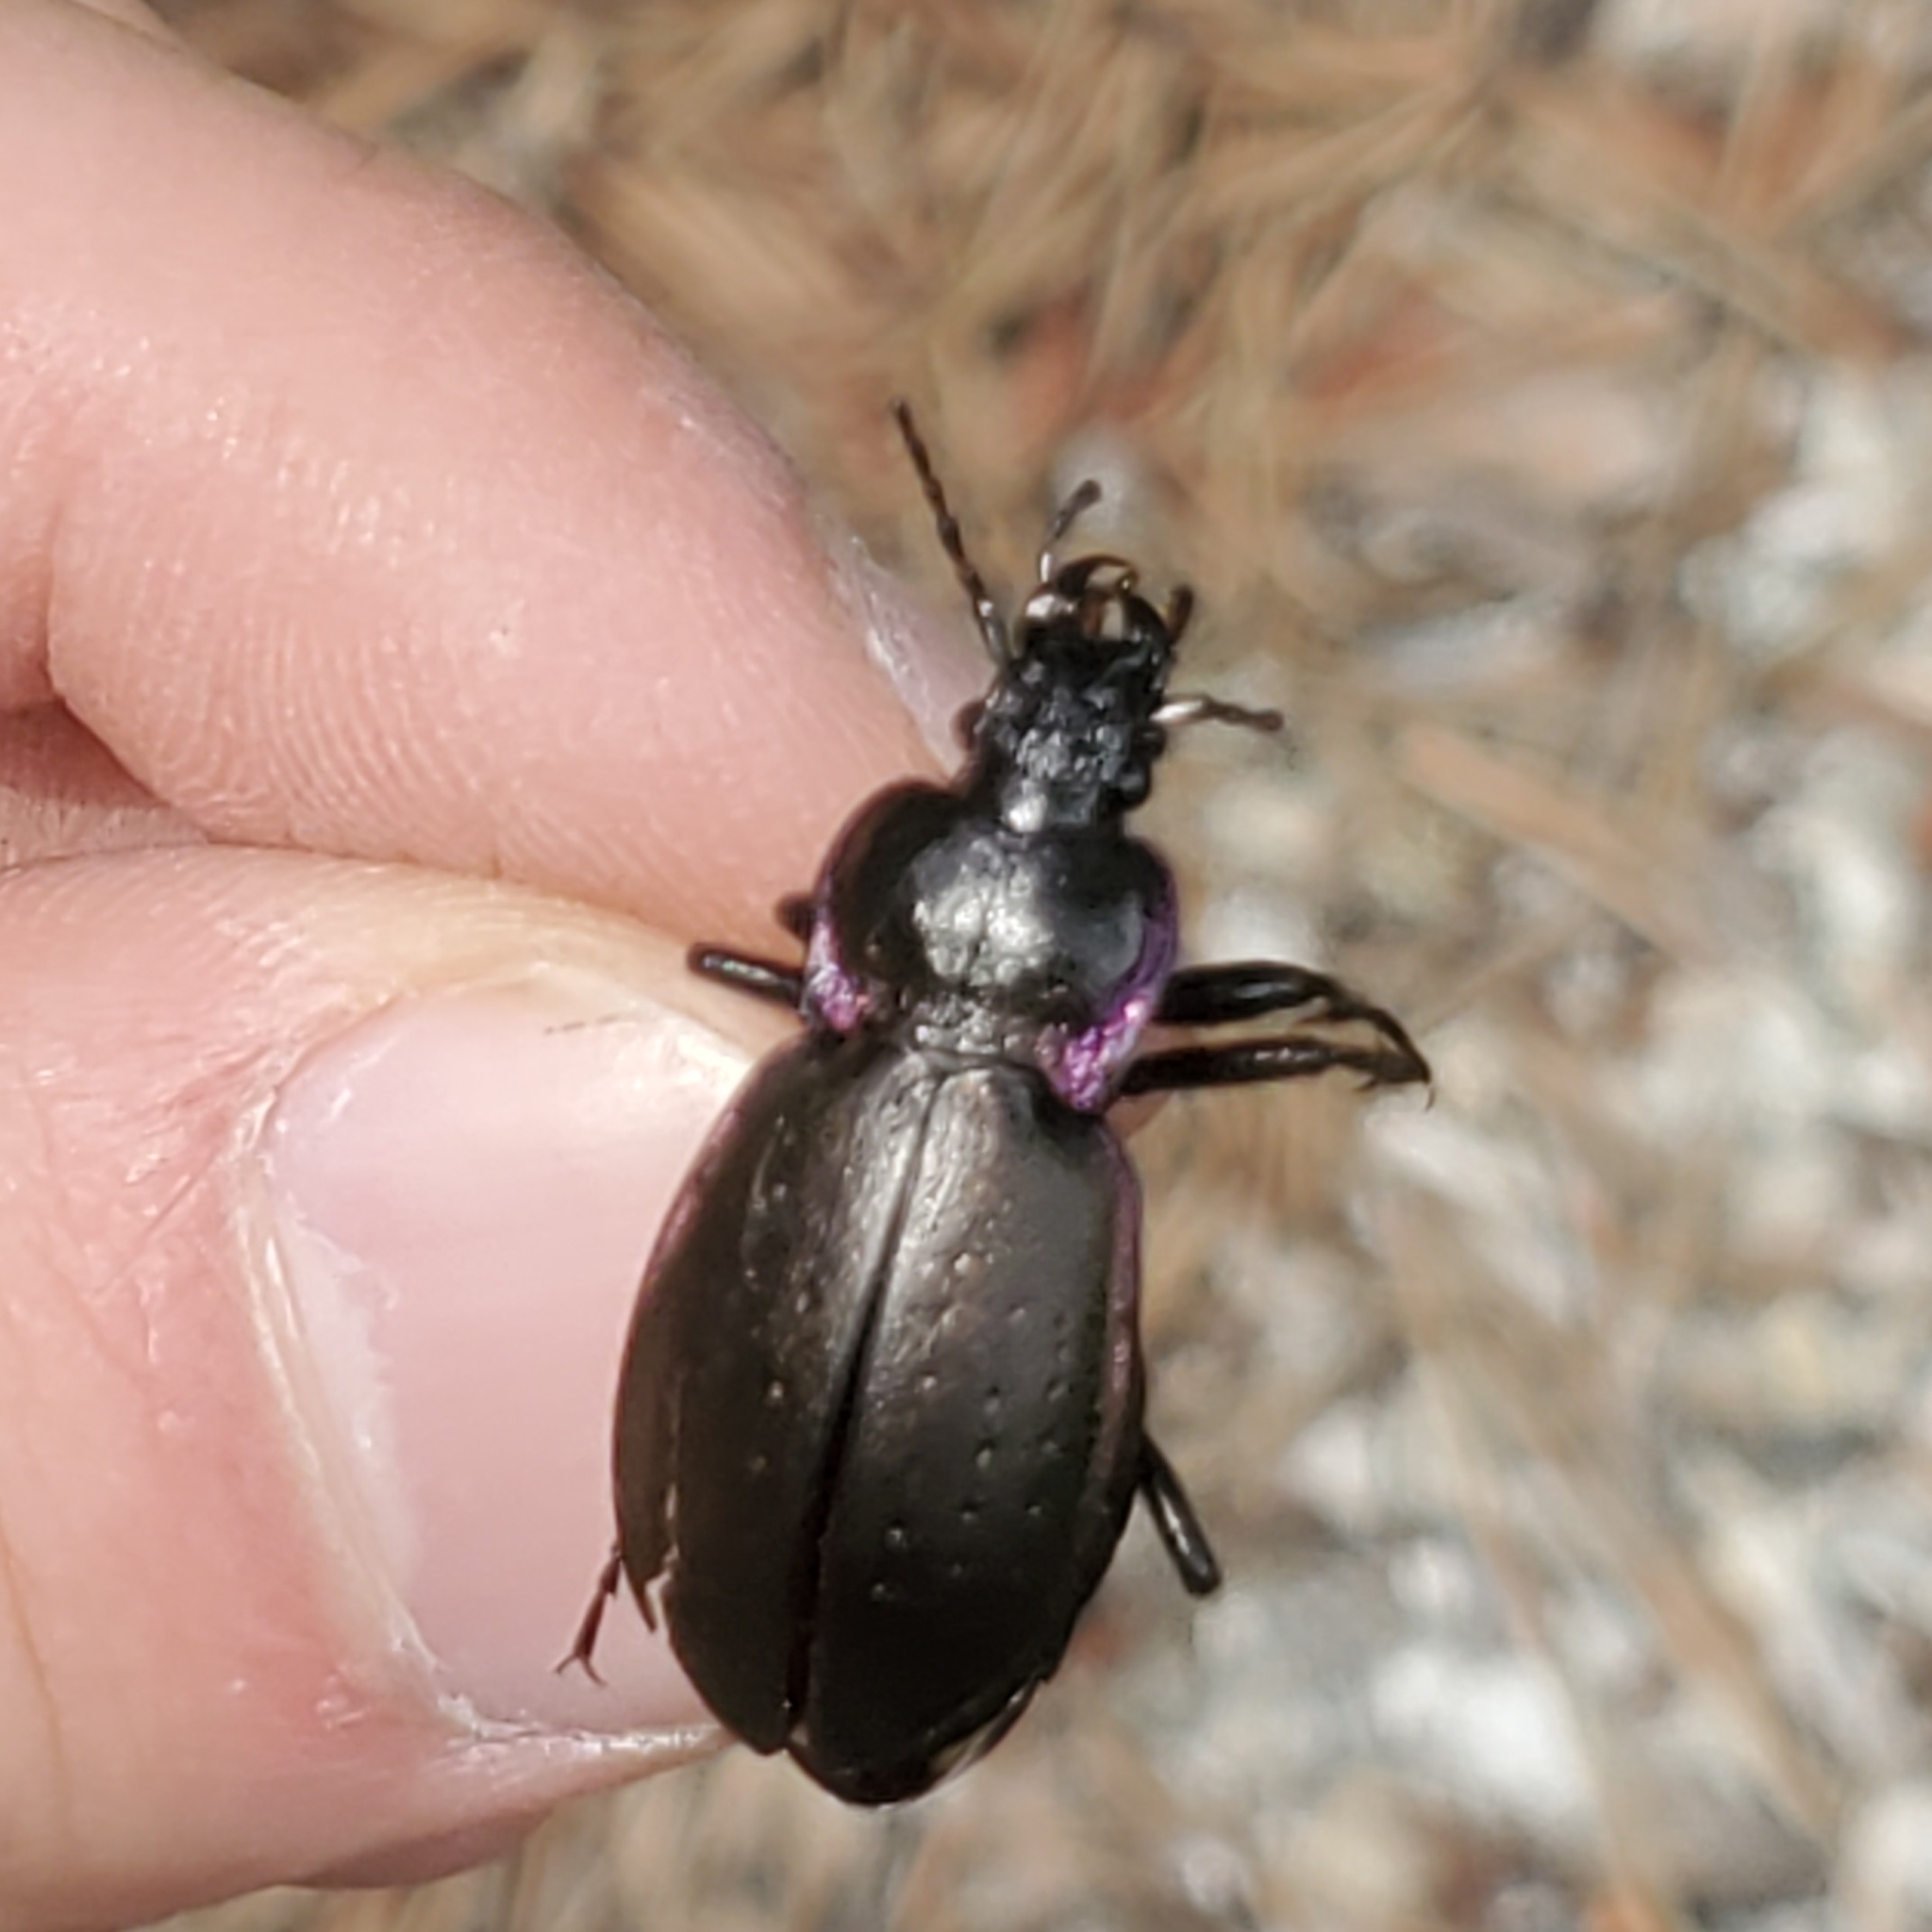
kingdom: Animalia
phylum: Arthropoda
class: Insecta
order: Coleoptera
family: Carabidae
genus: Carabus
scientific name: Carabus nemoralis
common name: European ground beetle
